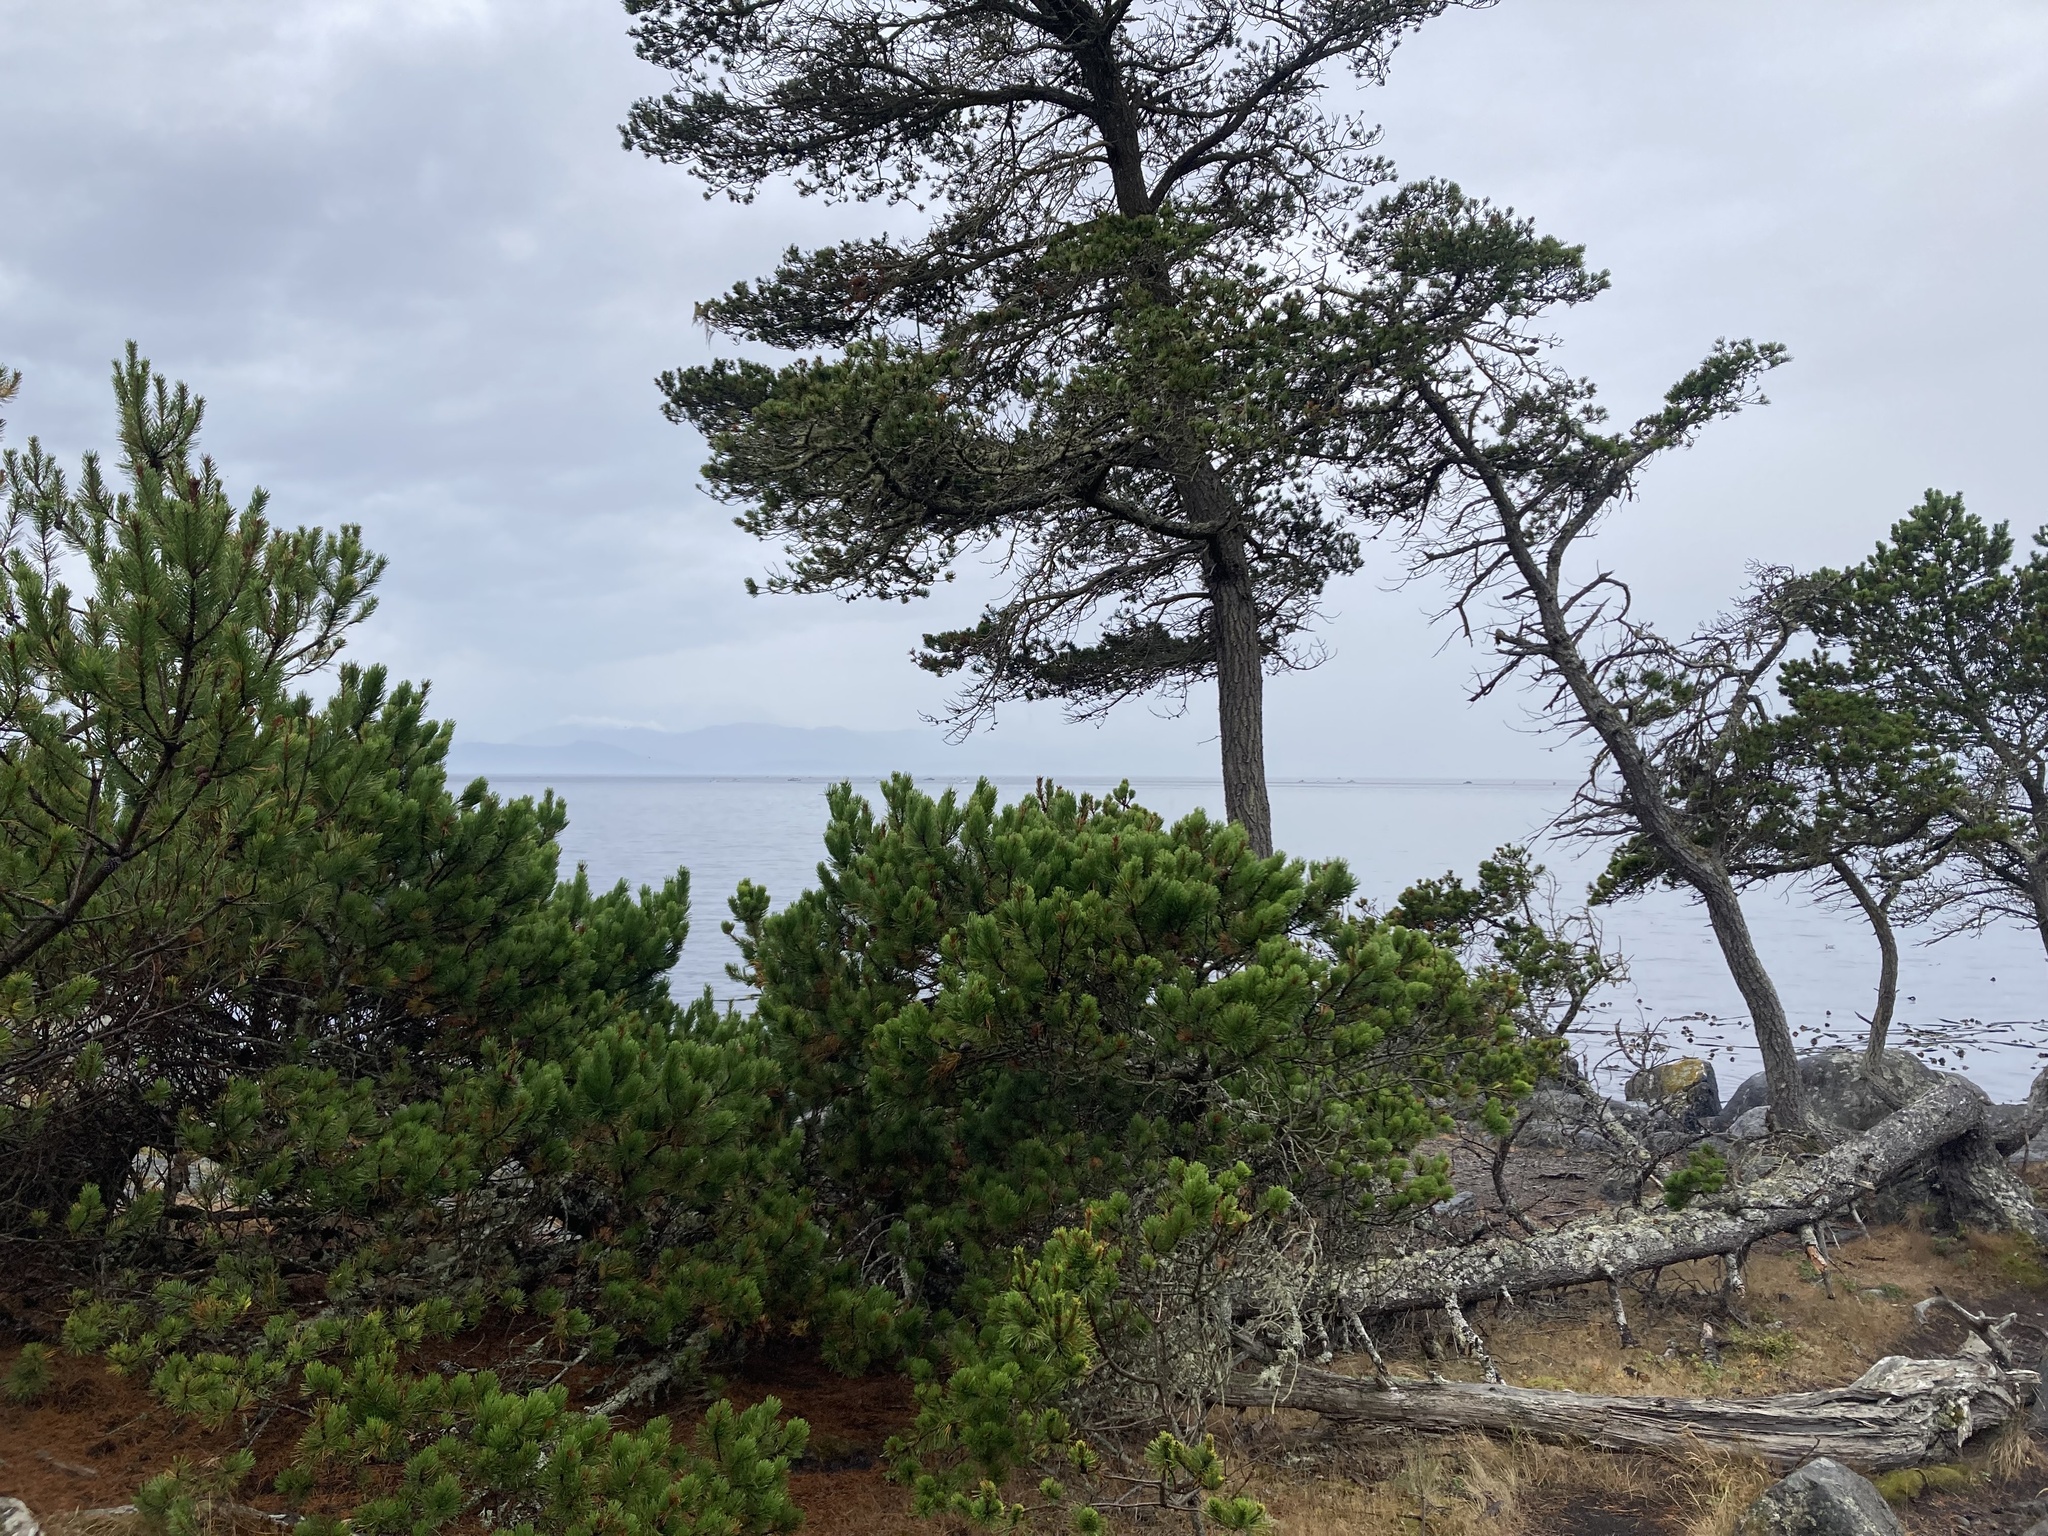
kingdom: Plantae
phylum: Tracheophyta
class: Pinopsida
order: Pinales
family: Pinaceae
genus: Pinus
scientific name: Pinus contorta
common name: Lodgepole pine
